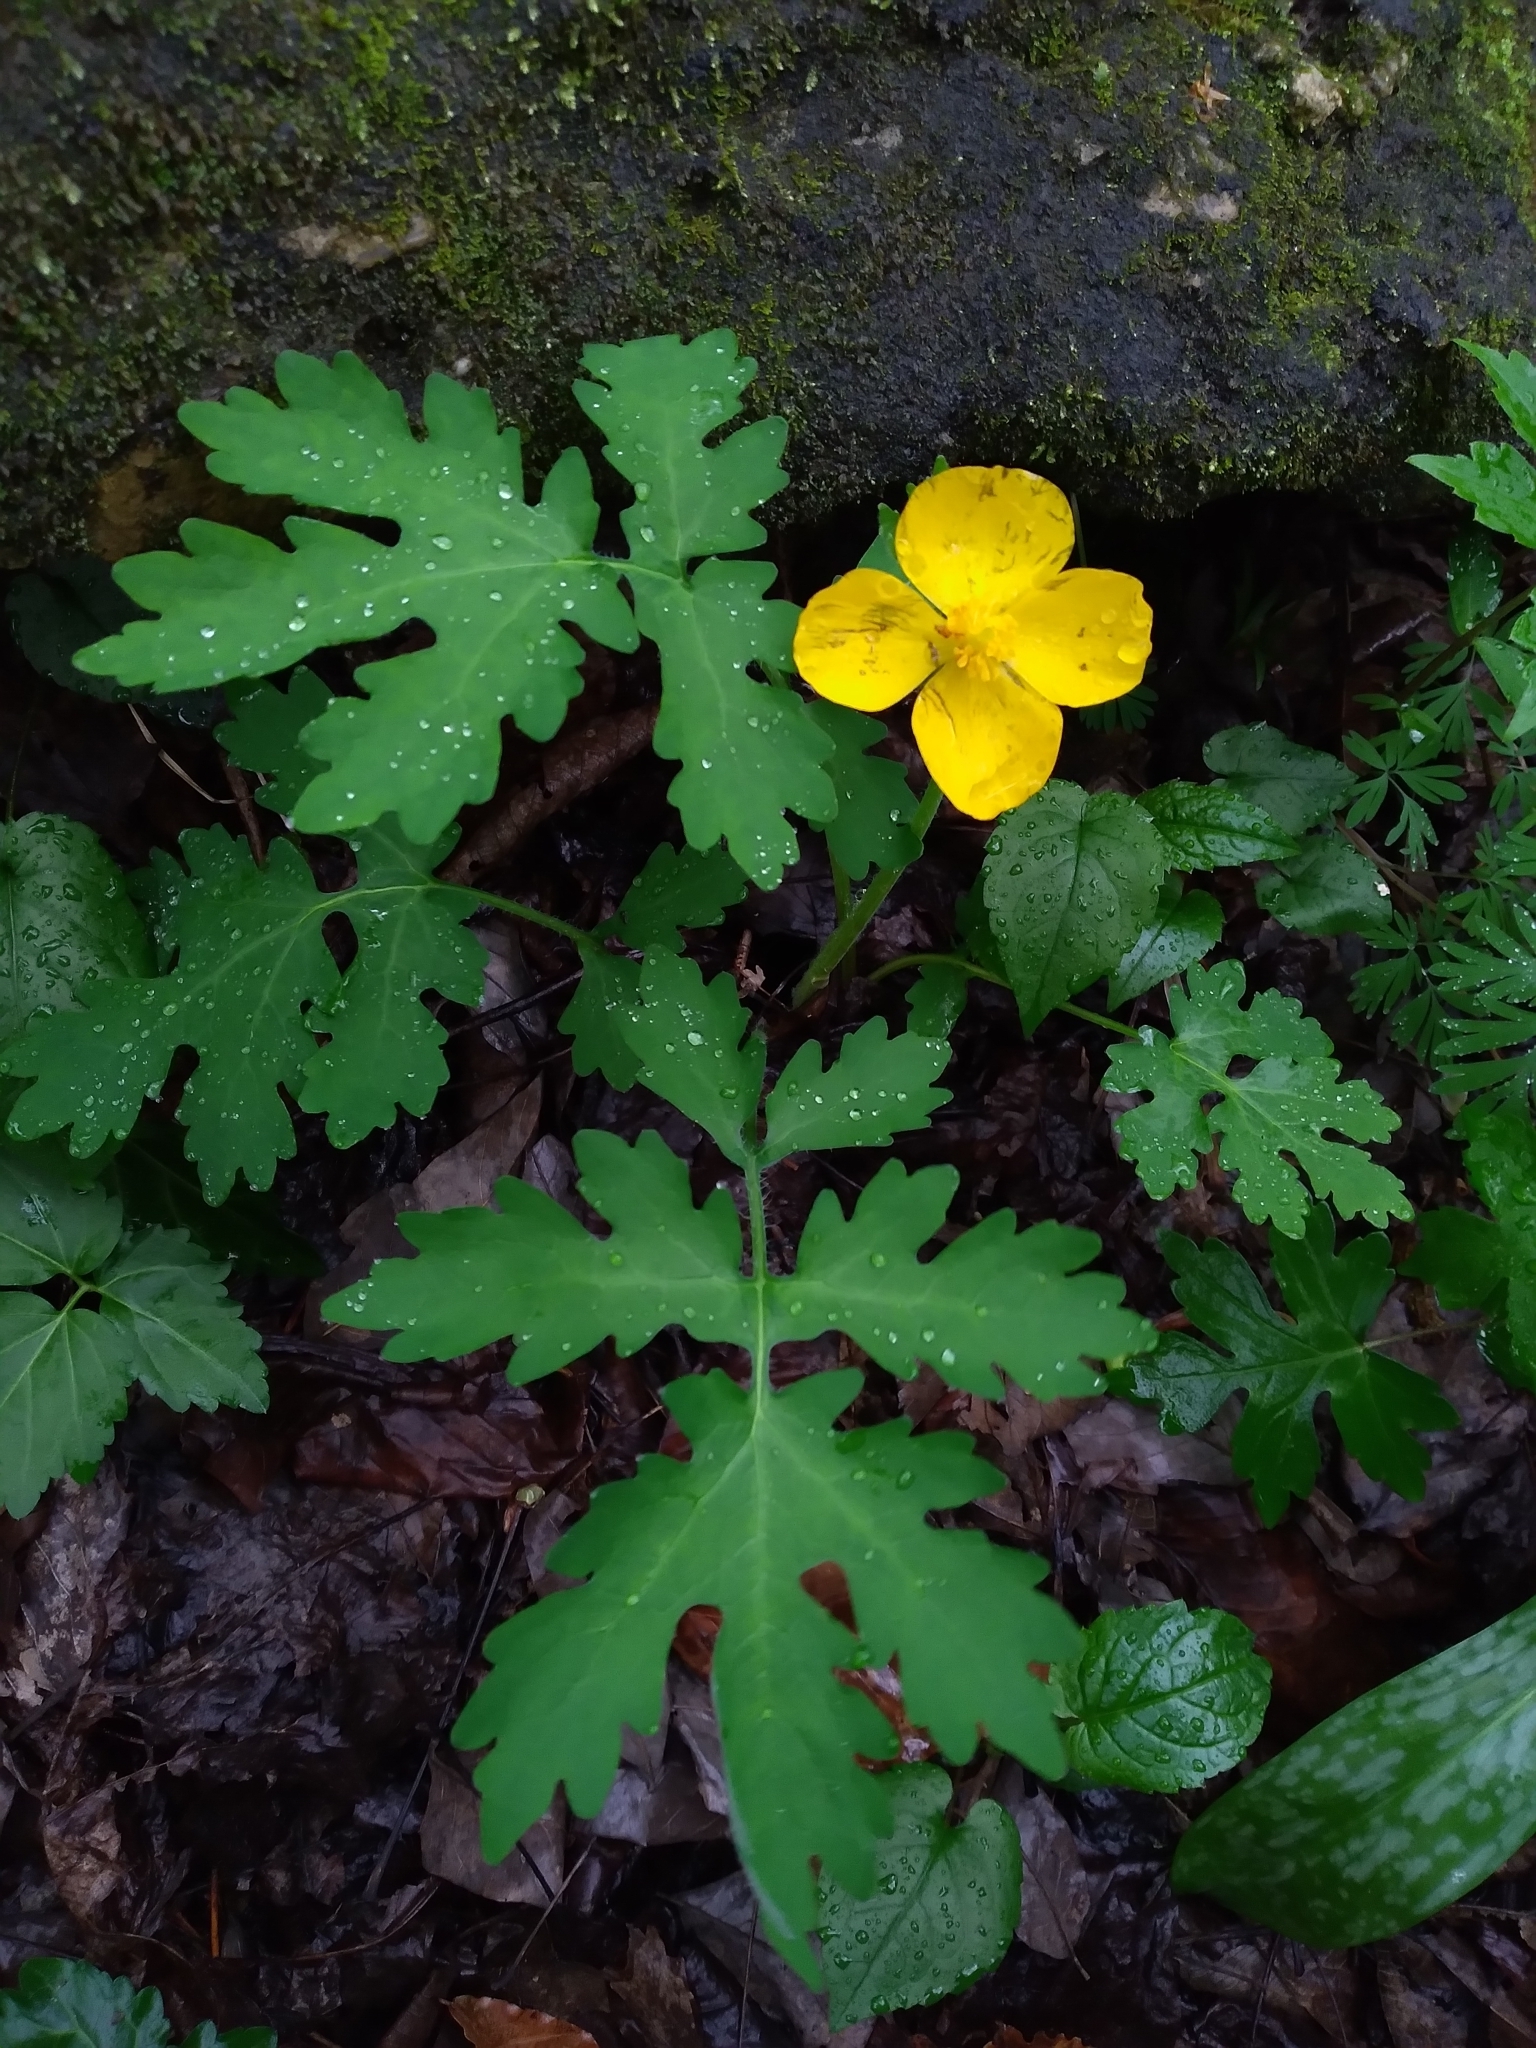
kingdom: Plantae
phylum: Tracheophyta
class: Magnoliopsida
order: Ranunculales
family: Papaveraceae
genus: Stylophorum
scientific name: Stylophorum diphyllum
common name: Celandine poppy
